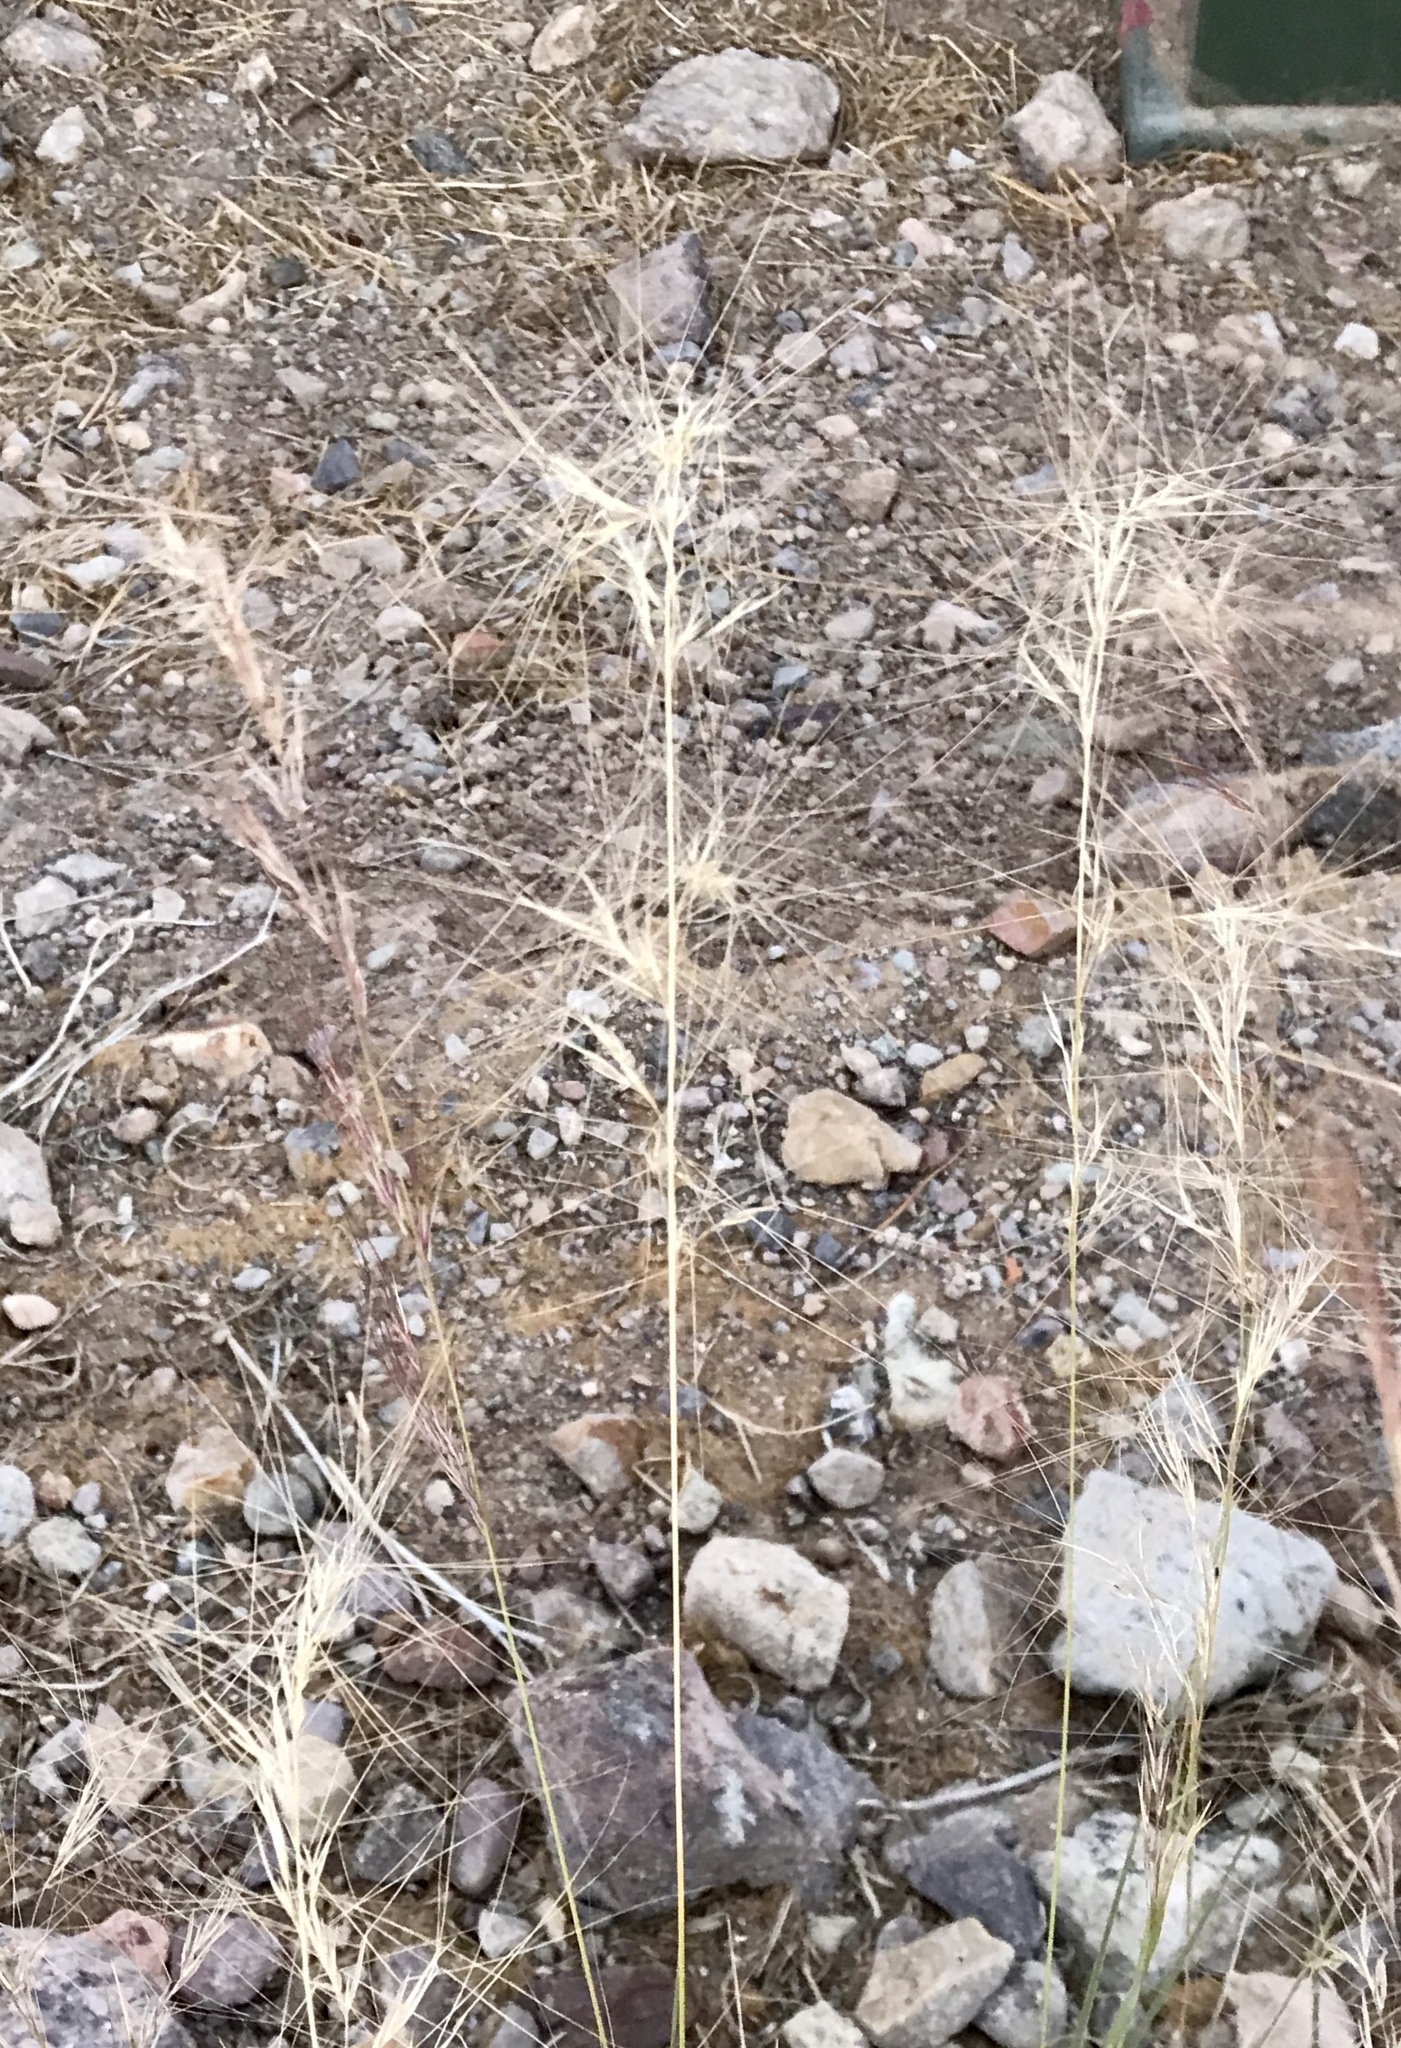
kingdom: Plantae
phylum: Tracheophyta
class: Liliopsida
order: Poales
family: Poaceae
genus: Aristida
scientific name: Aristida purpurea
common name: Purple threeawn
